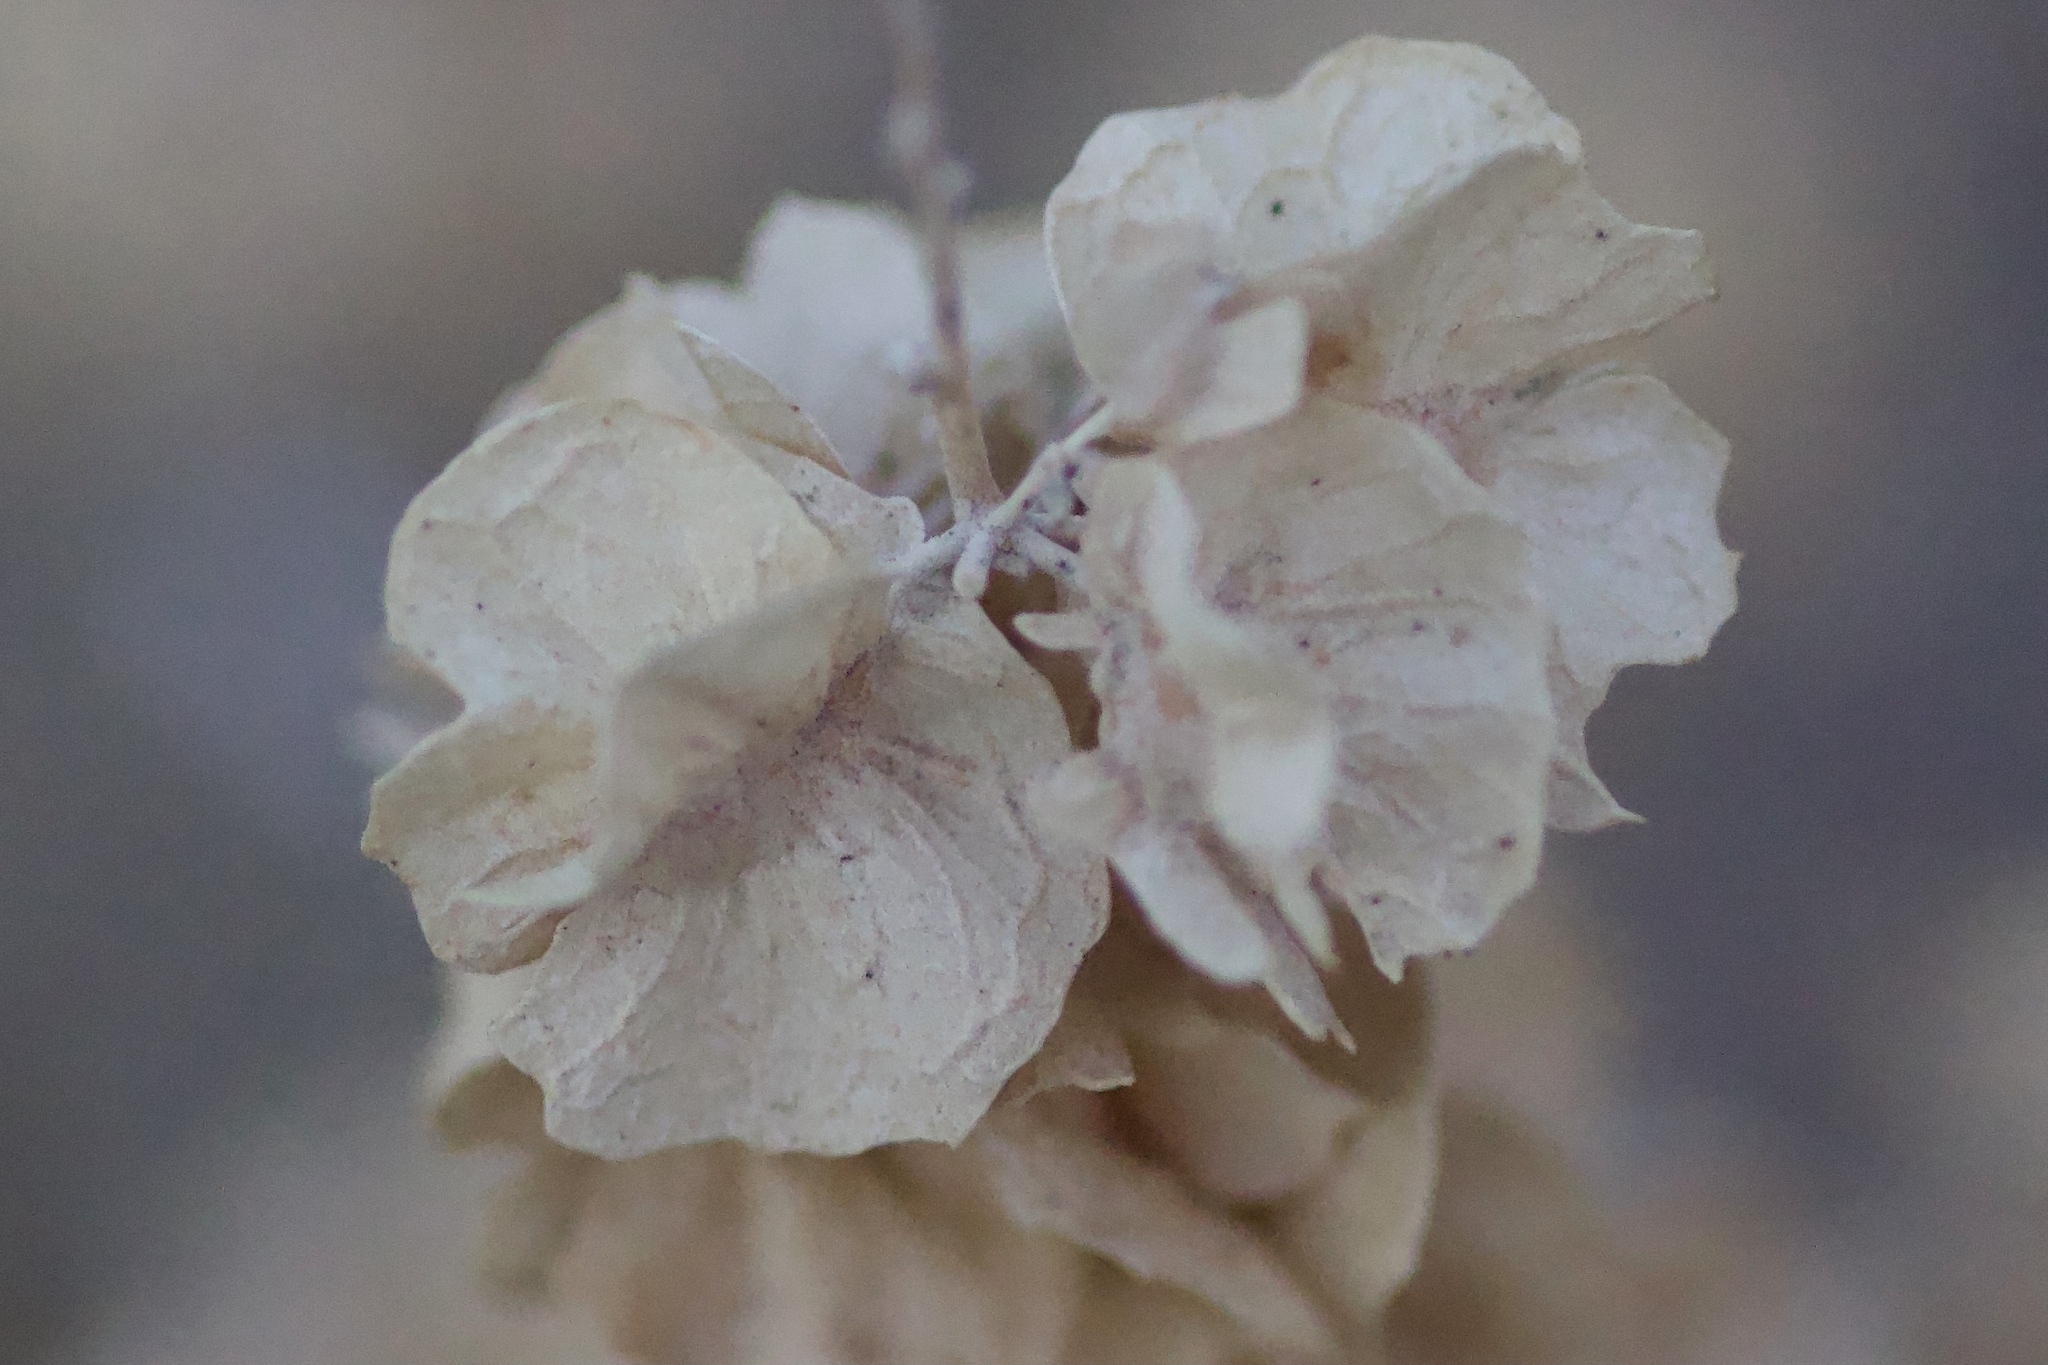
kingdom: Plantae
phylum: Tracheophyta
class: Magnoliopsida
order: Caryophyllales
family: Amaranthaceae
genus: Atriplex
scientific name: Atriplex canescens
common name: Four-wing saltbush
